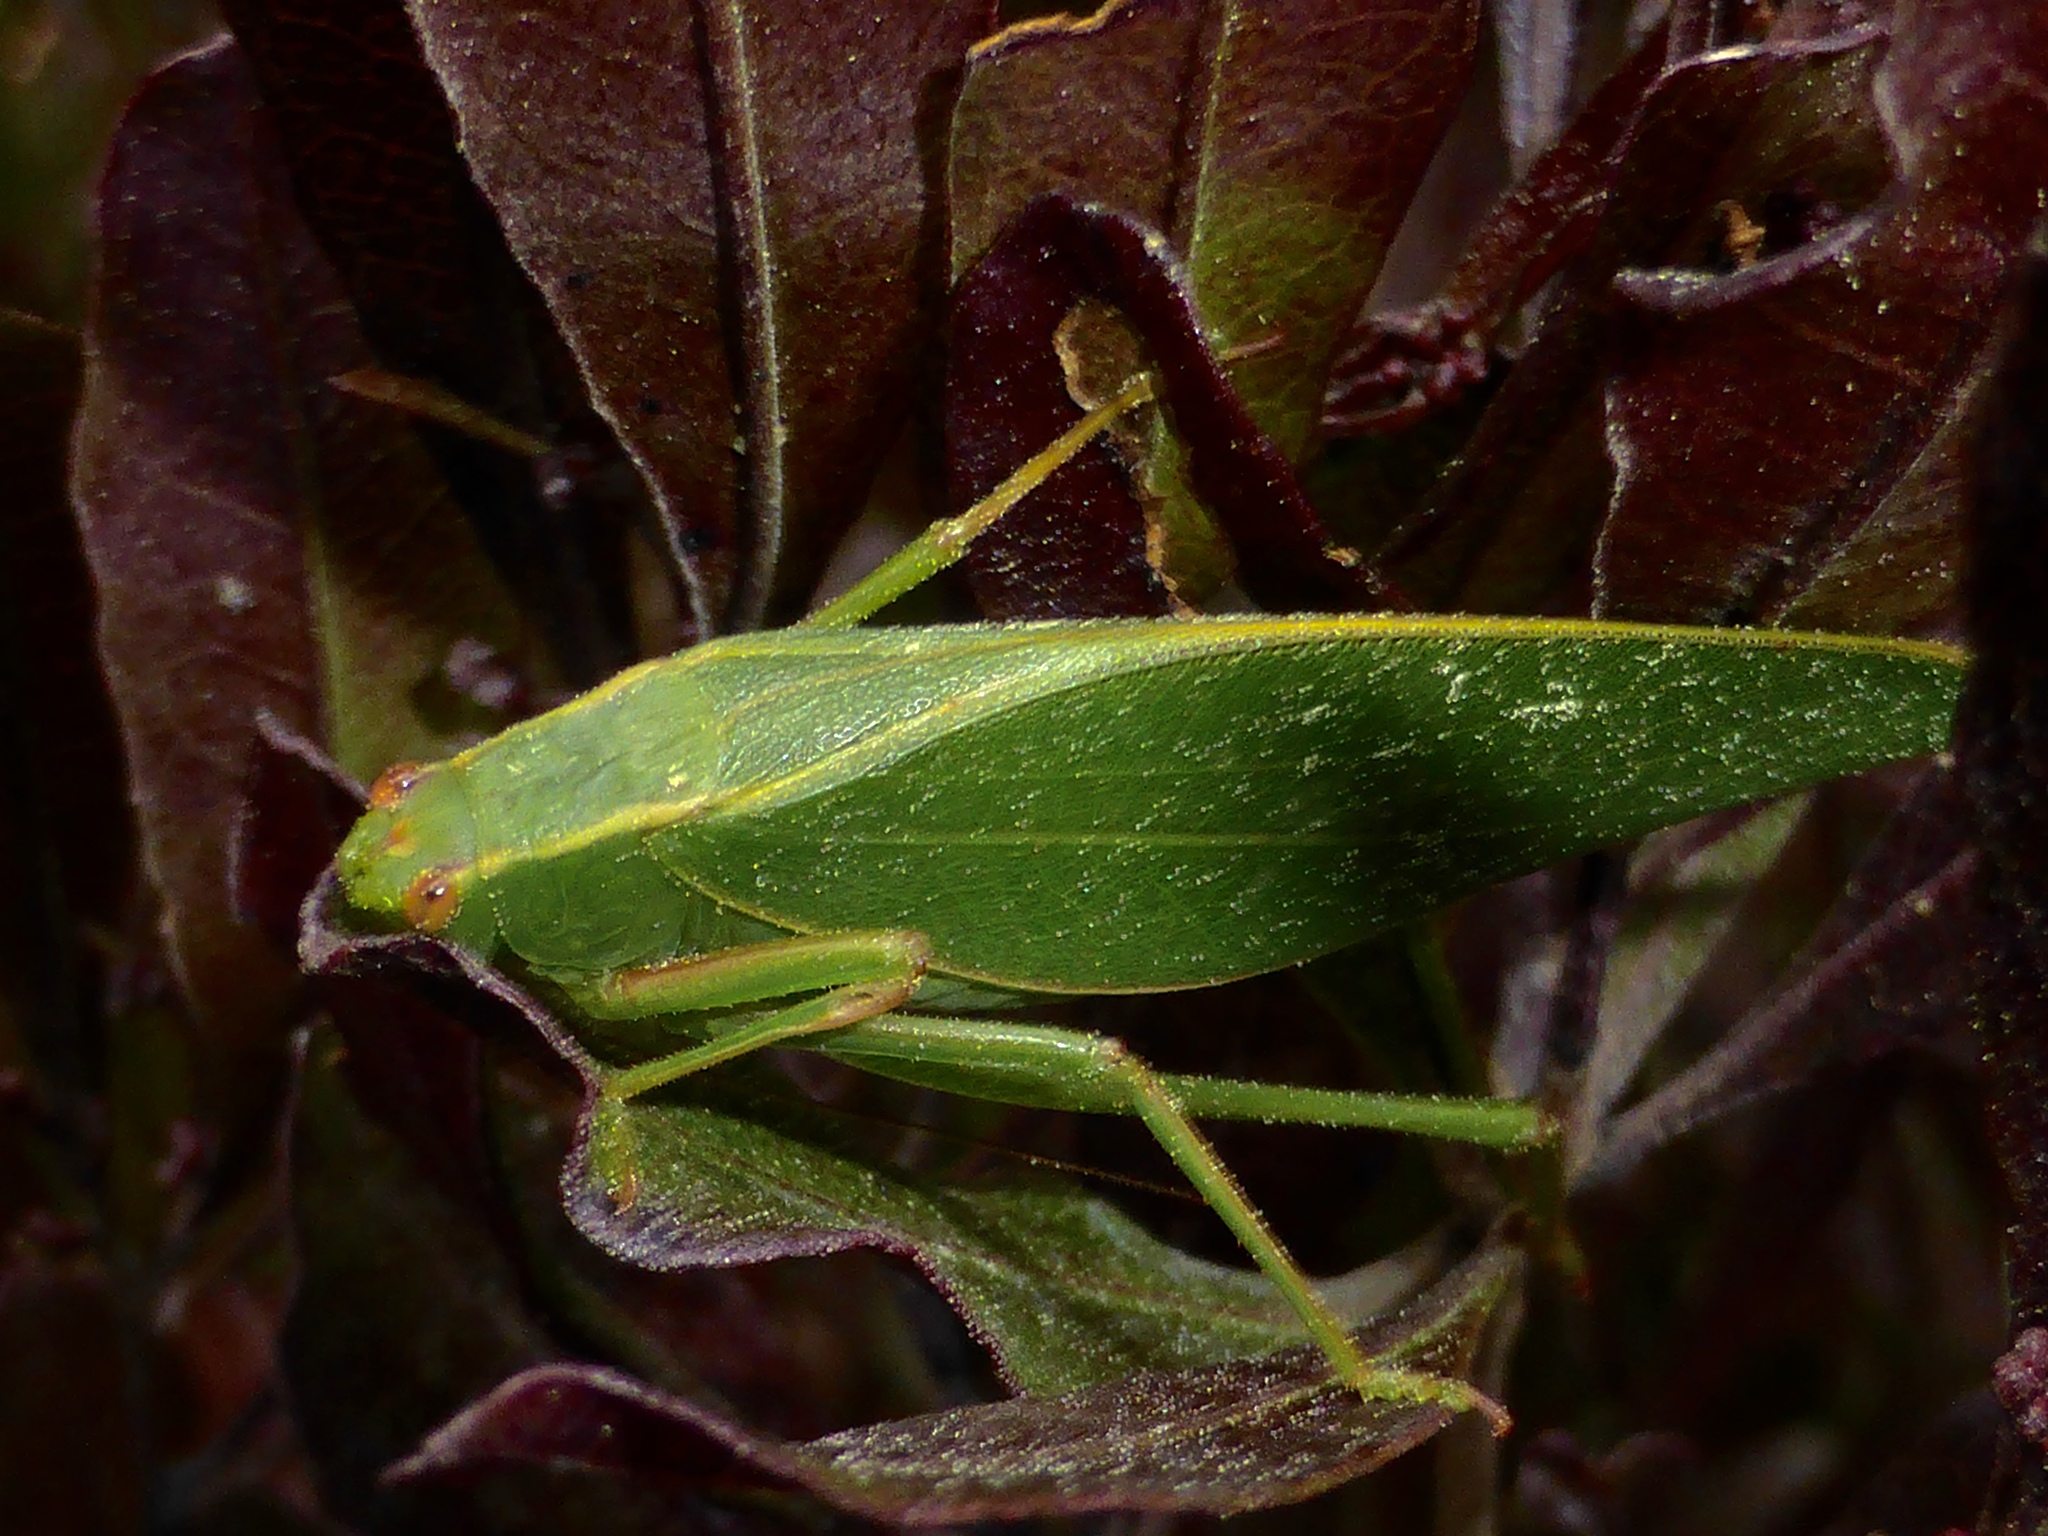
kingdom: Animalia
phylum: Arthropoda
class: Insecta
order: Orthoptera
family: Tettigoniidae
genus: Caedicia
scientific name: Caedicia simplex
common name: Common garden katydid
